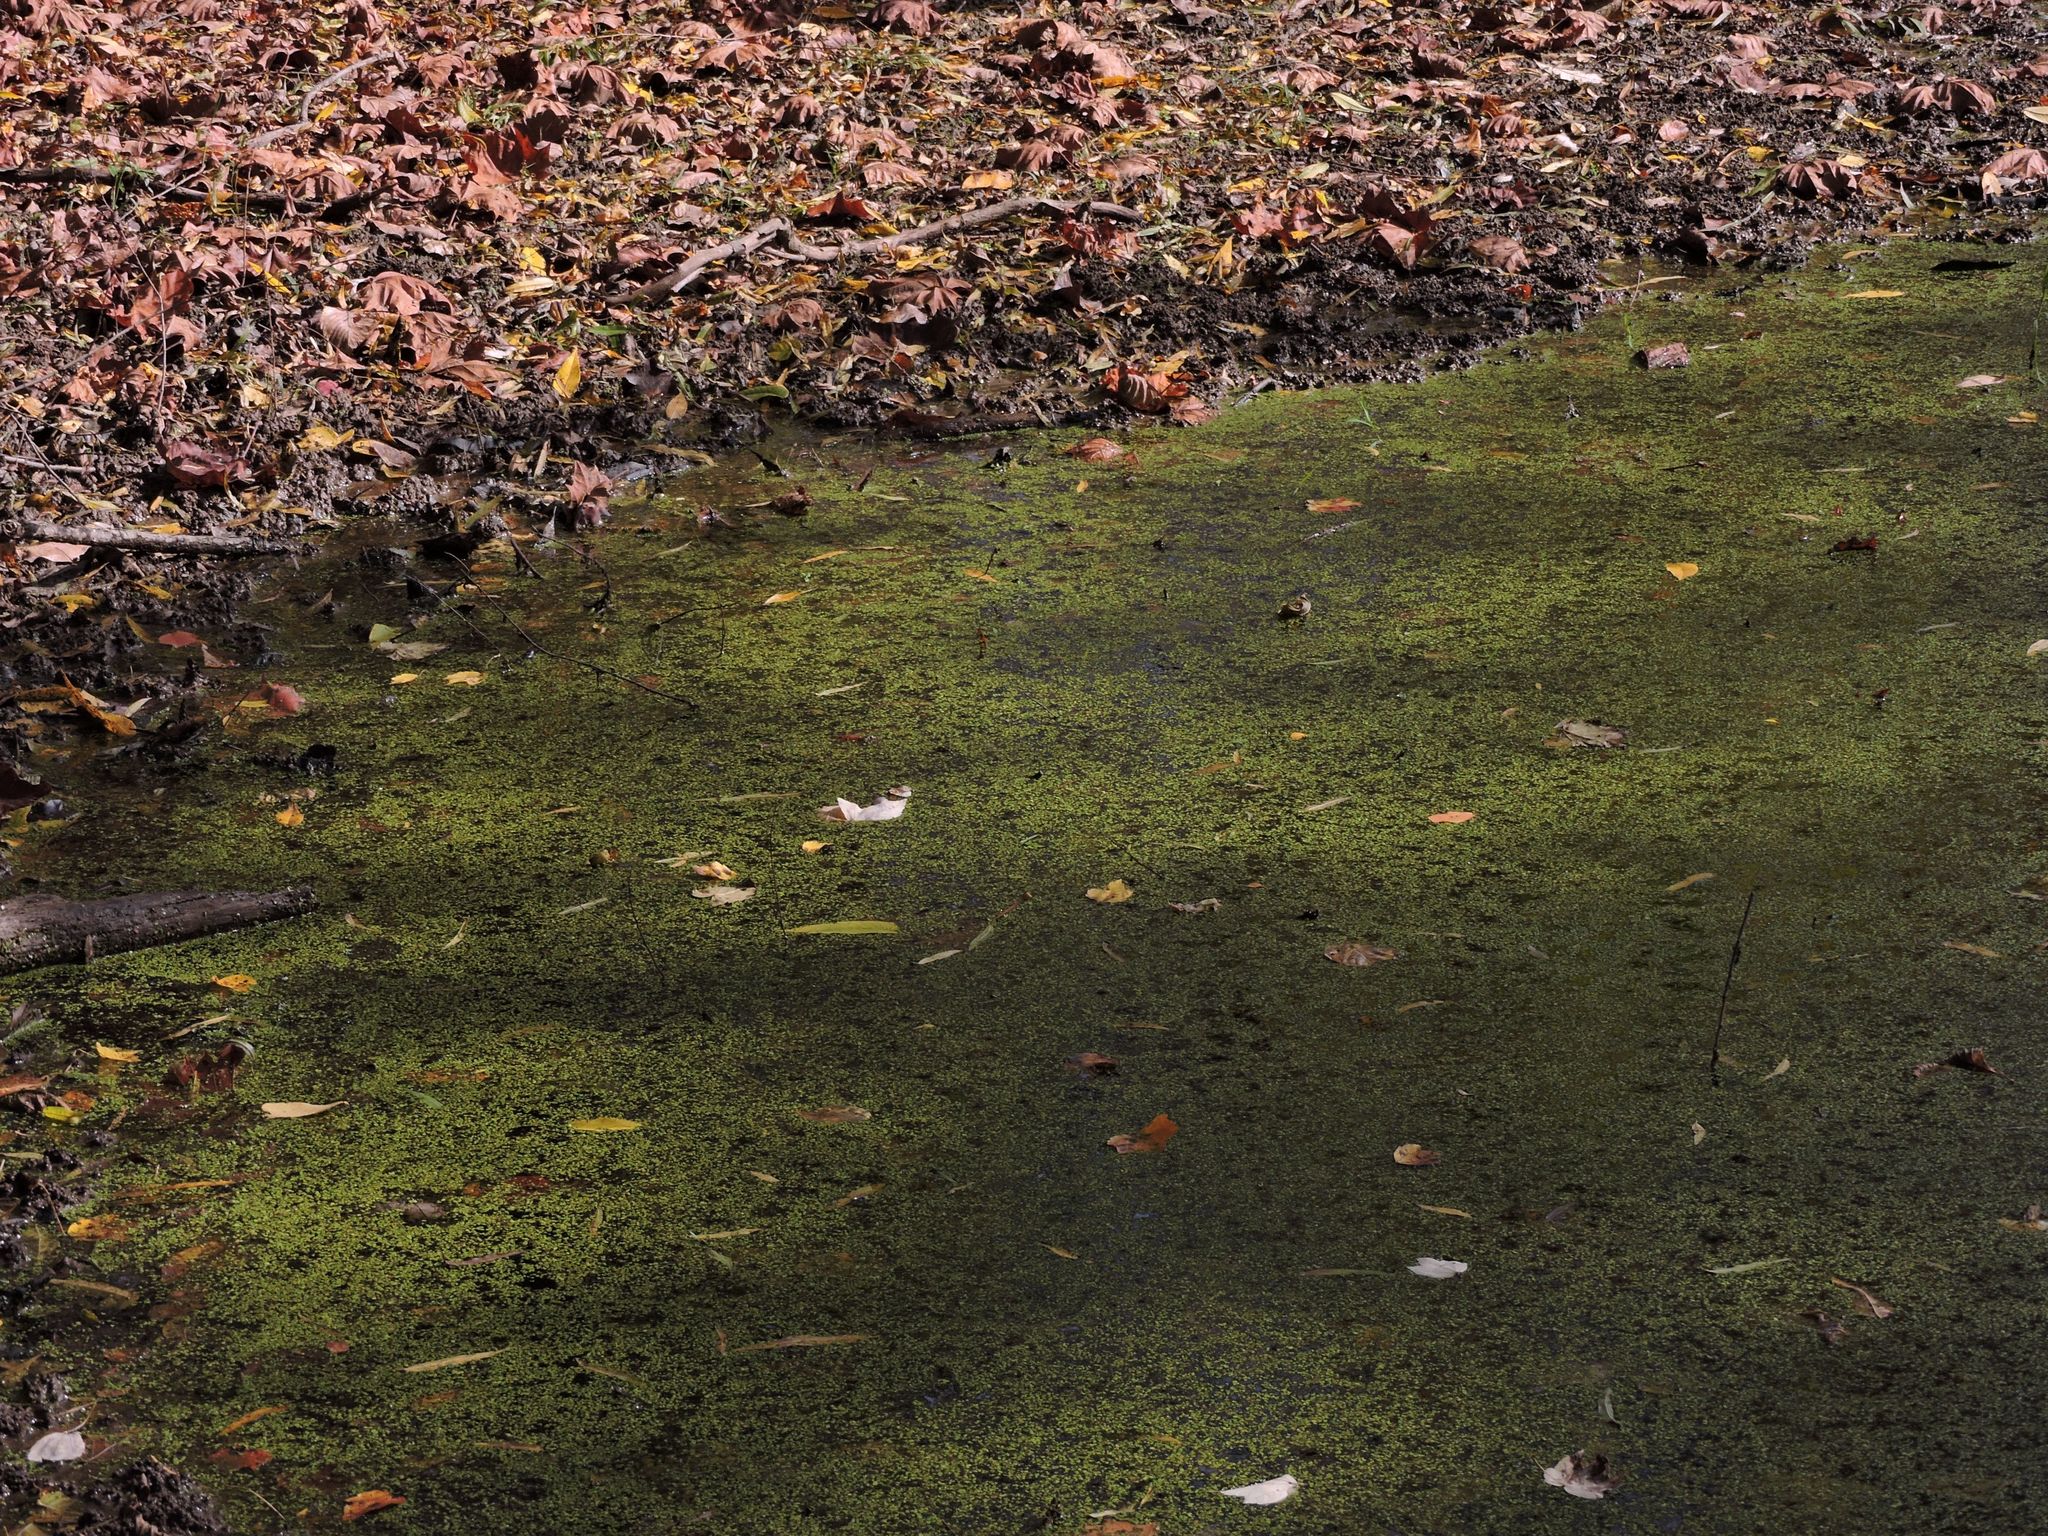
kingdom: Chromista
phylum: Ciliophora
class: Oligohymenophorea
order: Peniculida
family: Parameciidae
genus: Paramecium
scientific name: Paramecium caudatum
